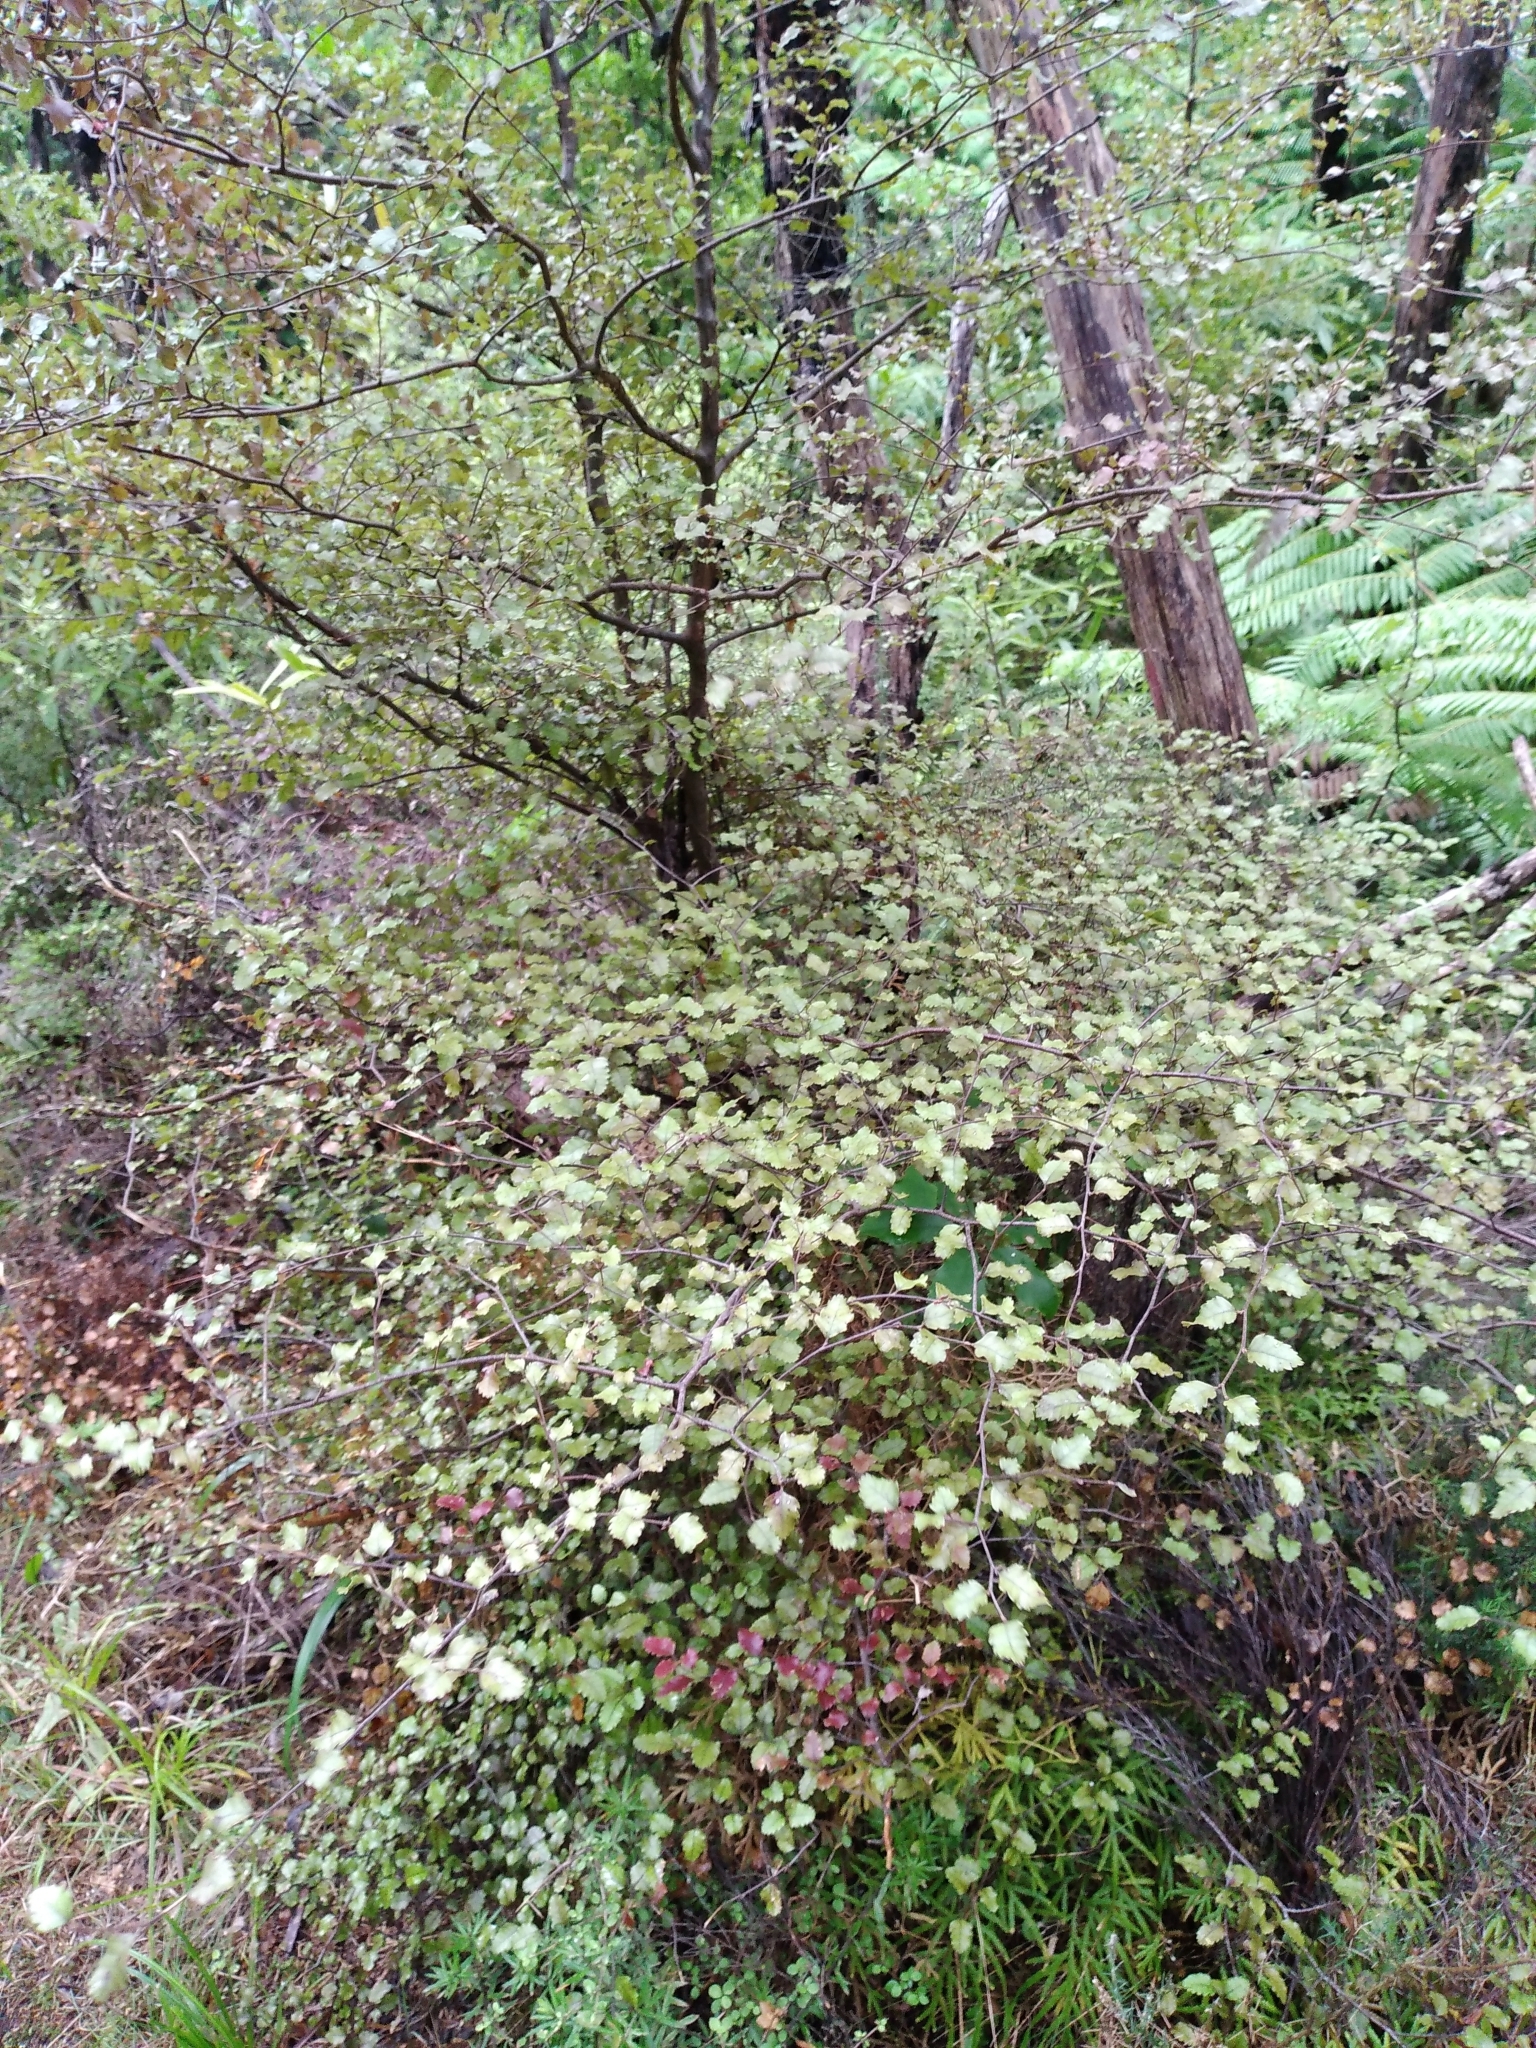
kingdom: Plantae
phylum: Tracheophyta
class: Magnoliopsida
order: Fagales
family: Nothofagaceae
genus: Nothofagus
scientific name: Nothofagus truncata
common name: Hard beech
